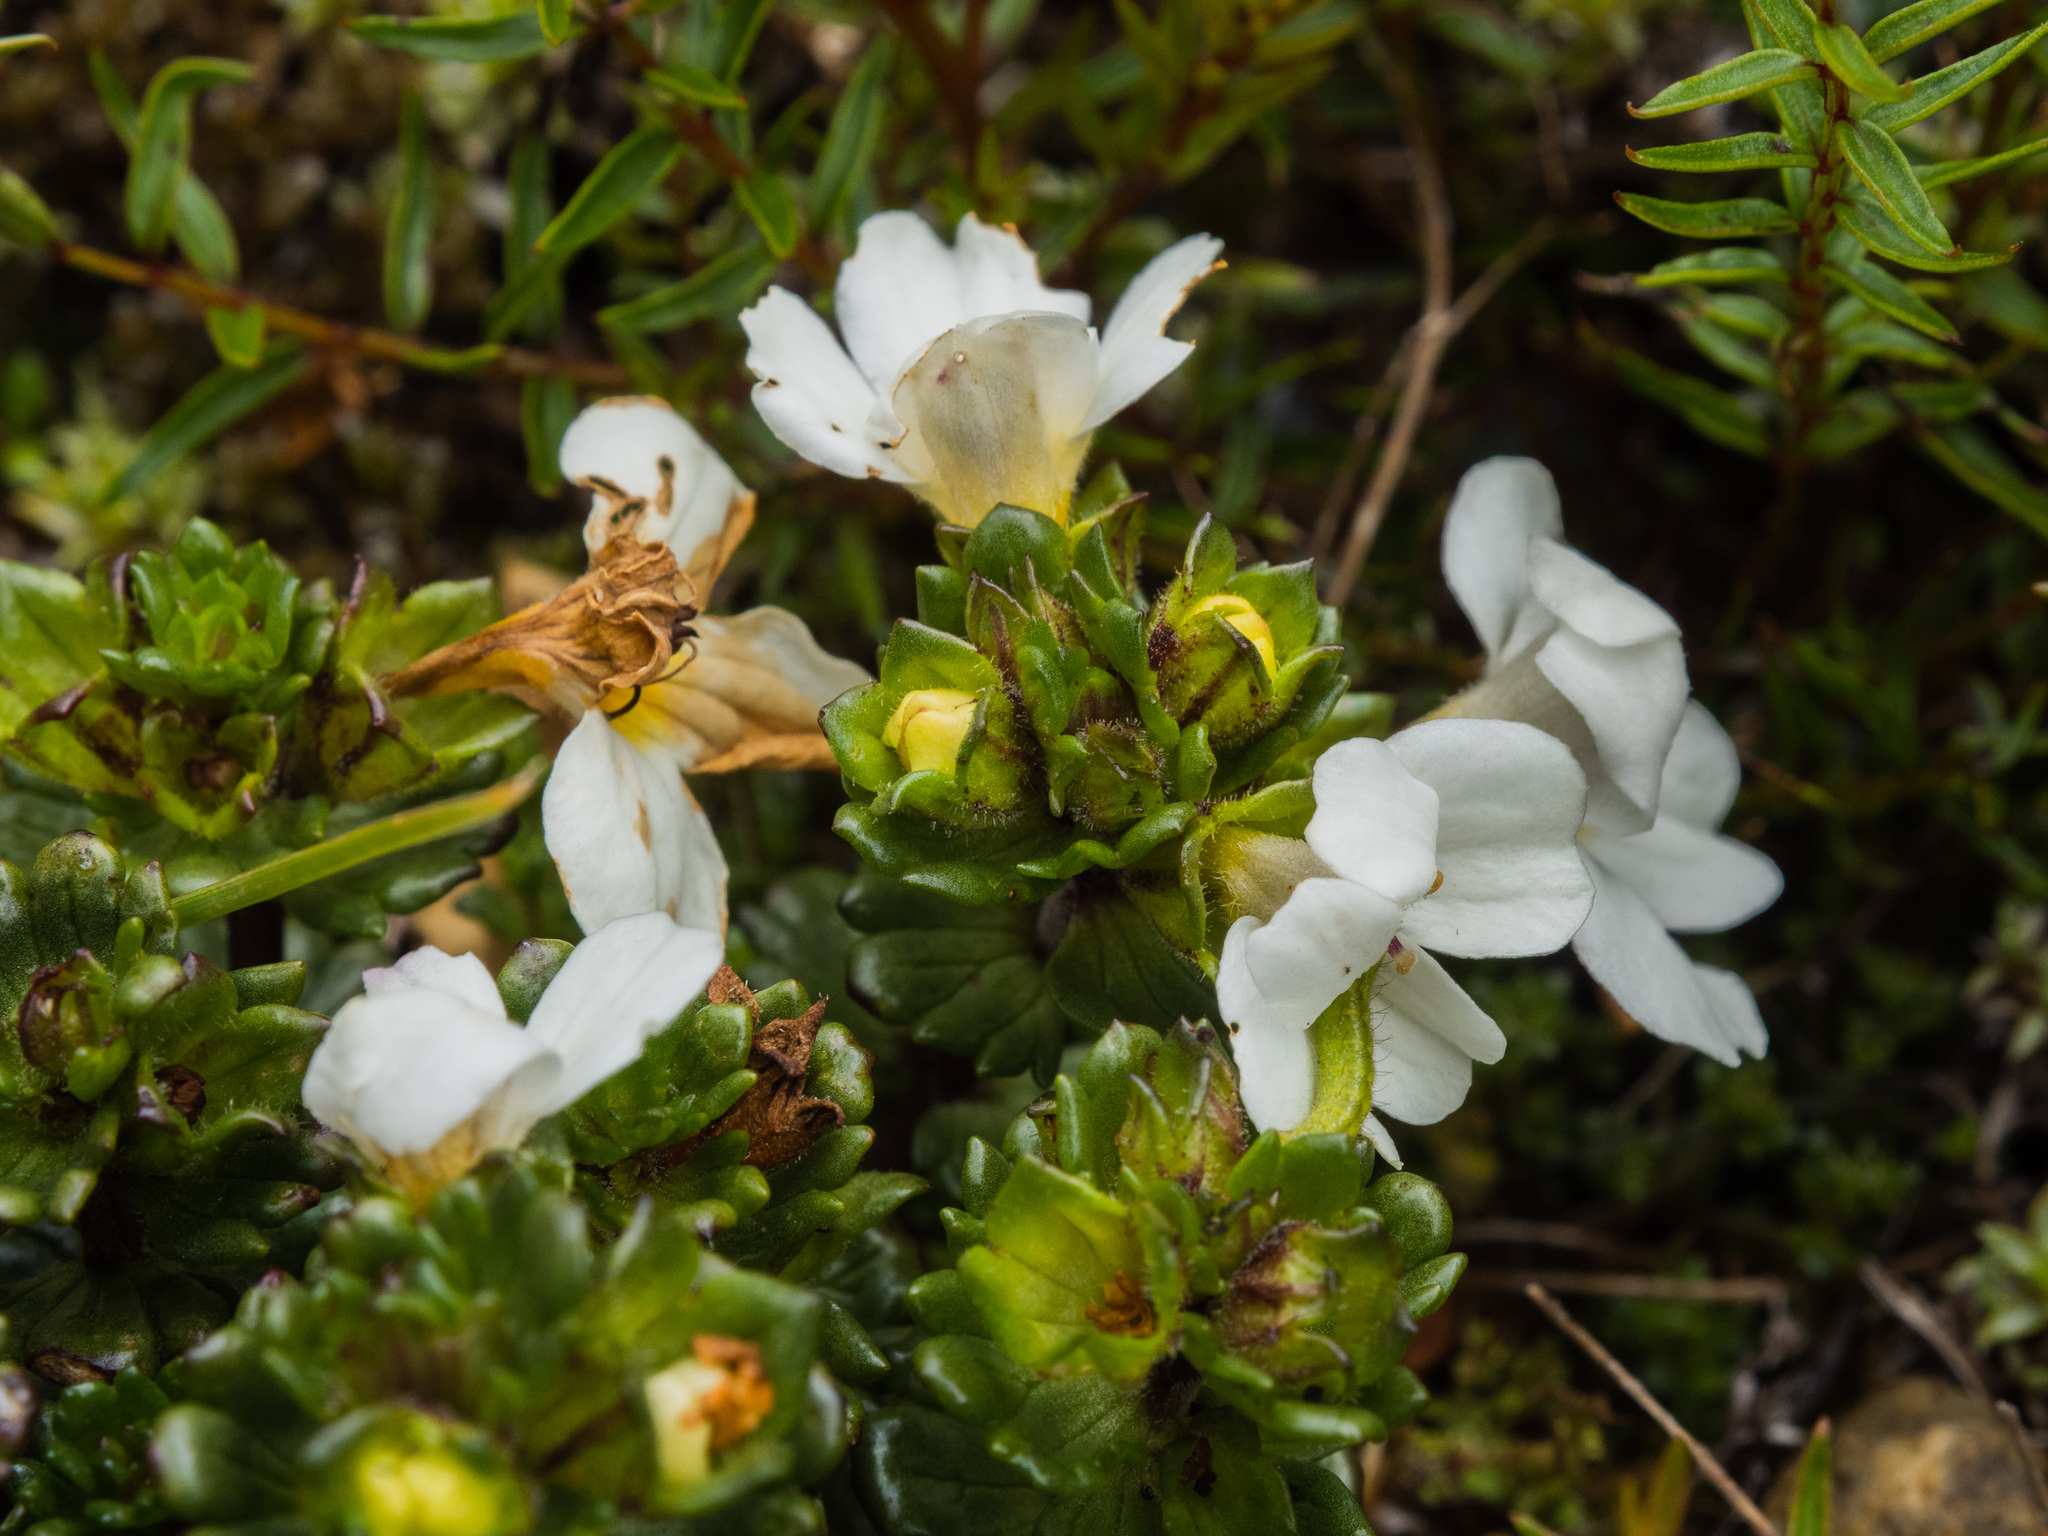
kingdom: Plantae
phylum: Tracheophyta
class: Magnoliopsida
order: Lamiales
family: Orobanchaceae
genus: Euphrasia
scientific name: Euphrasia petriei
